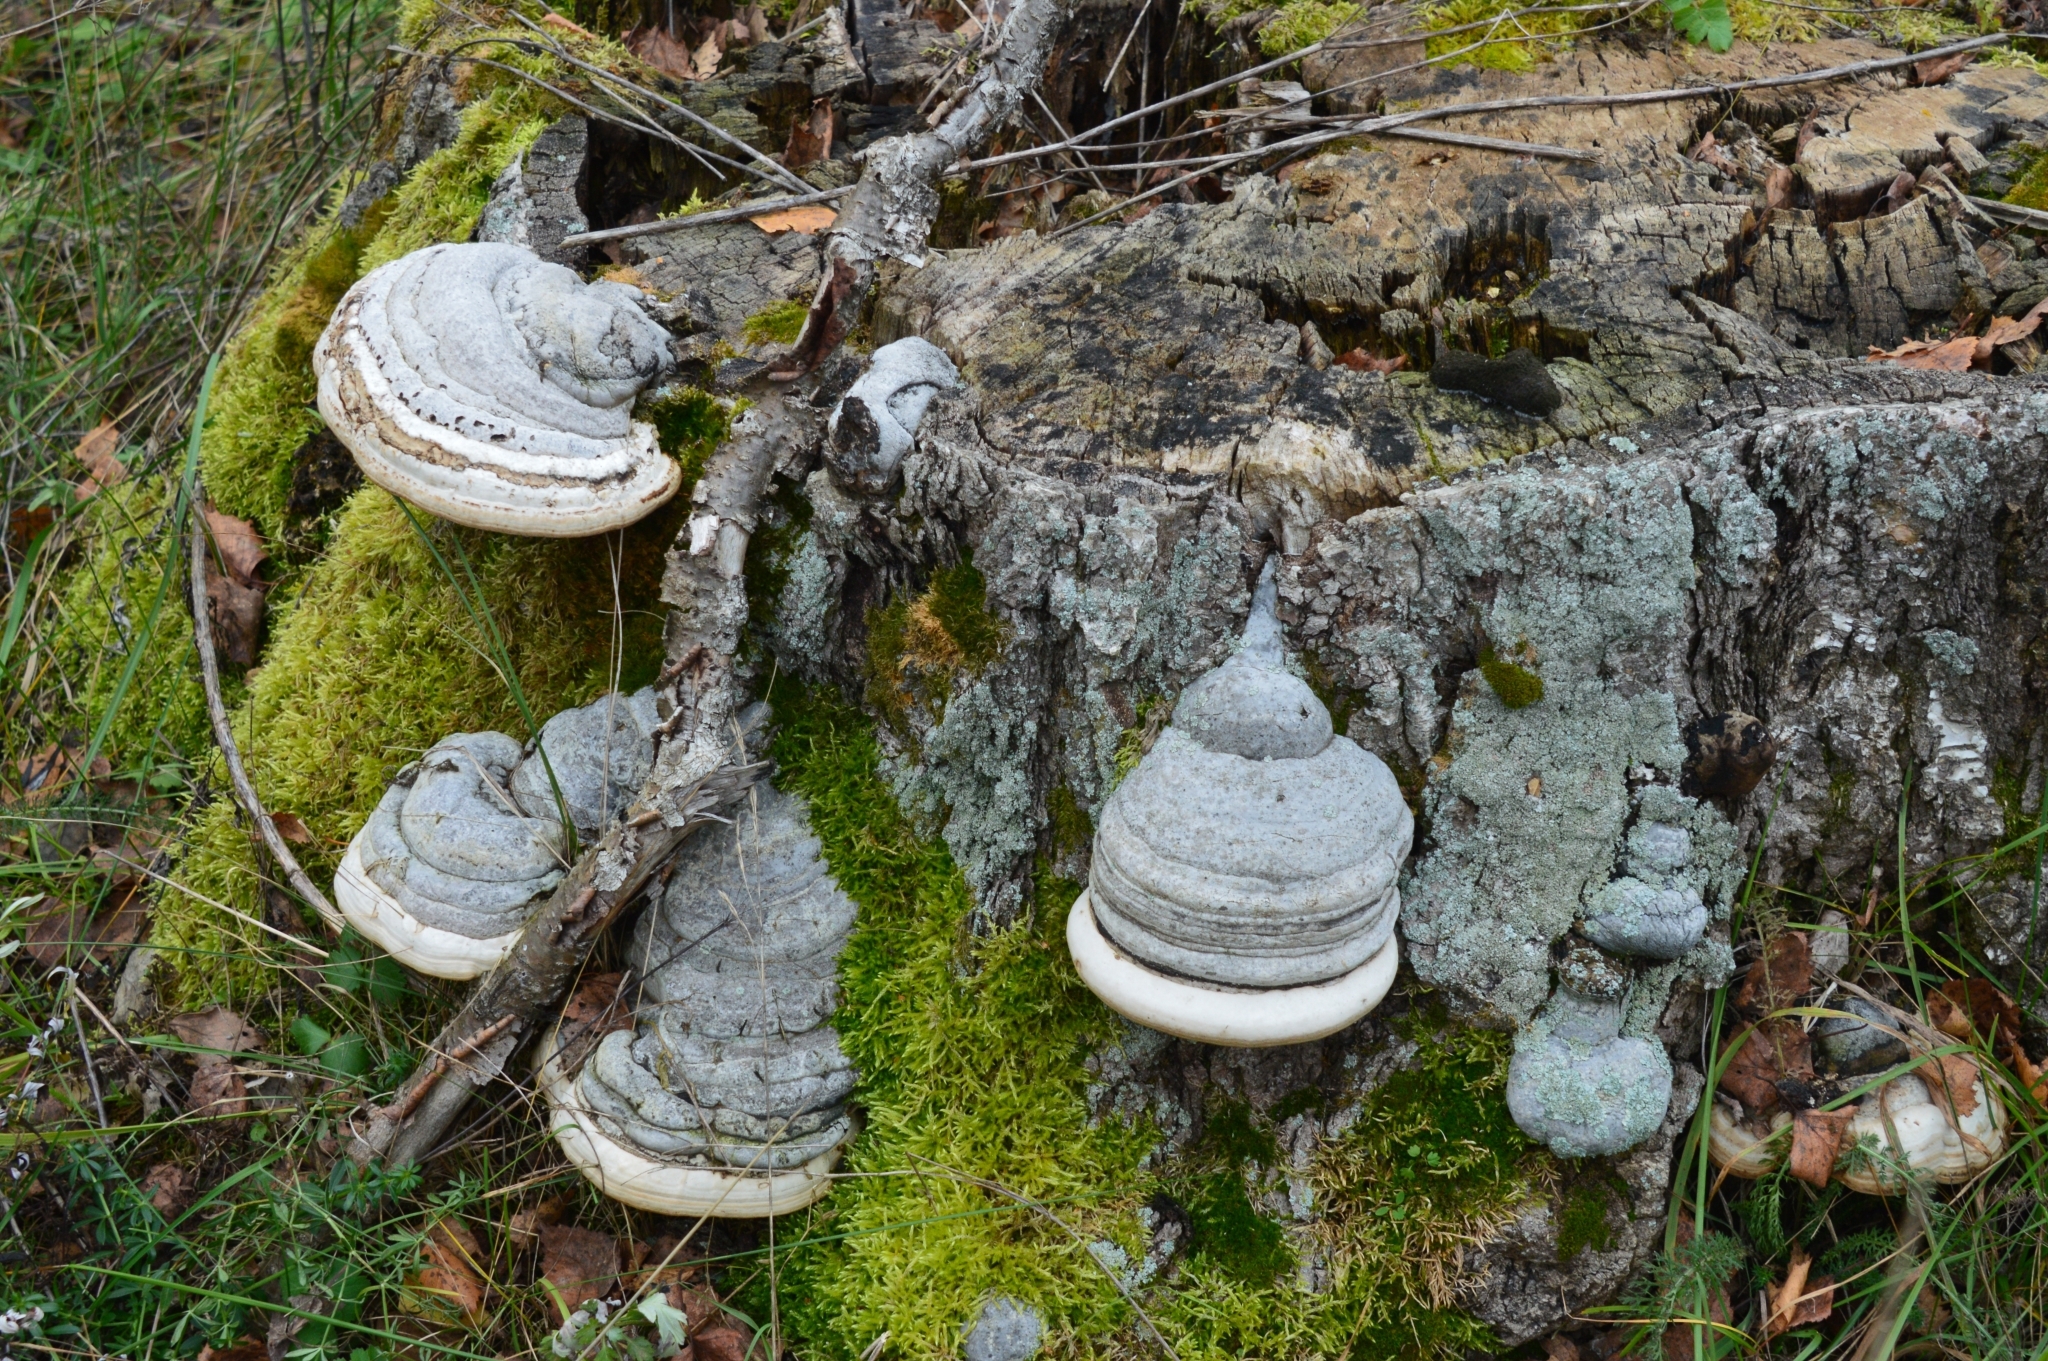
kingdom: Fungi
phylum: Basidiomycota
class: Agaricomycetes
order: Polyporales
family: Polyporaceae
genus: Fomes
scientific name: Fomes fomentarius
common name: Hoof fungus
